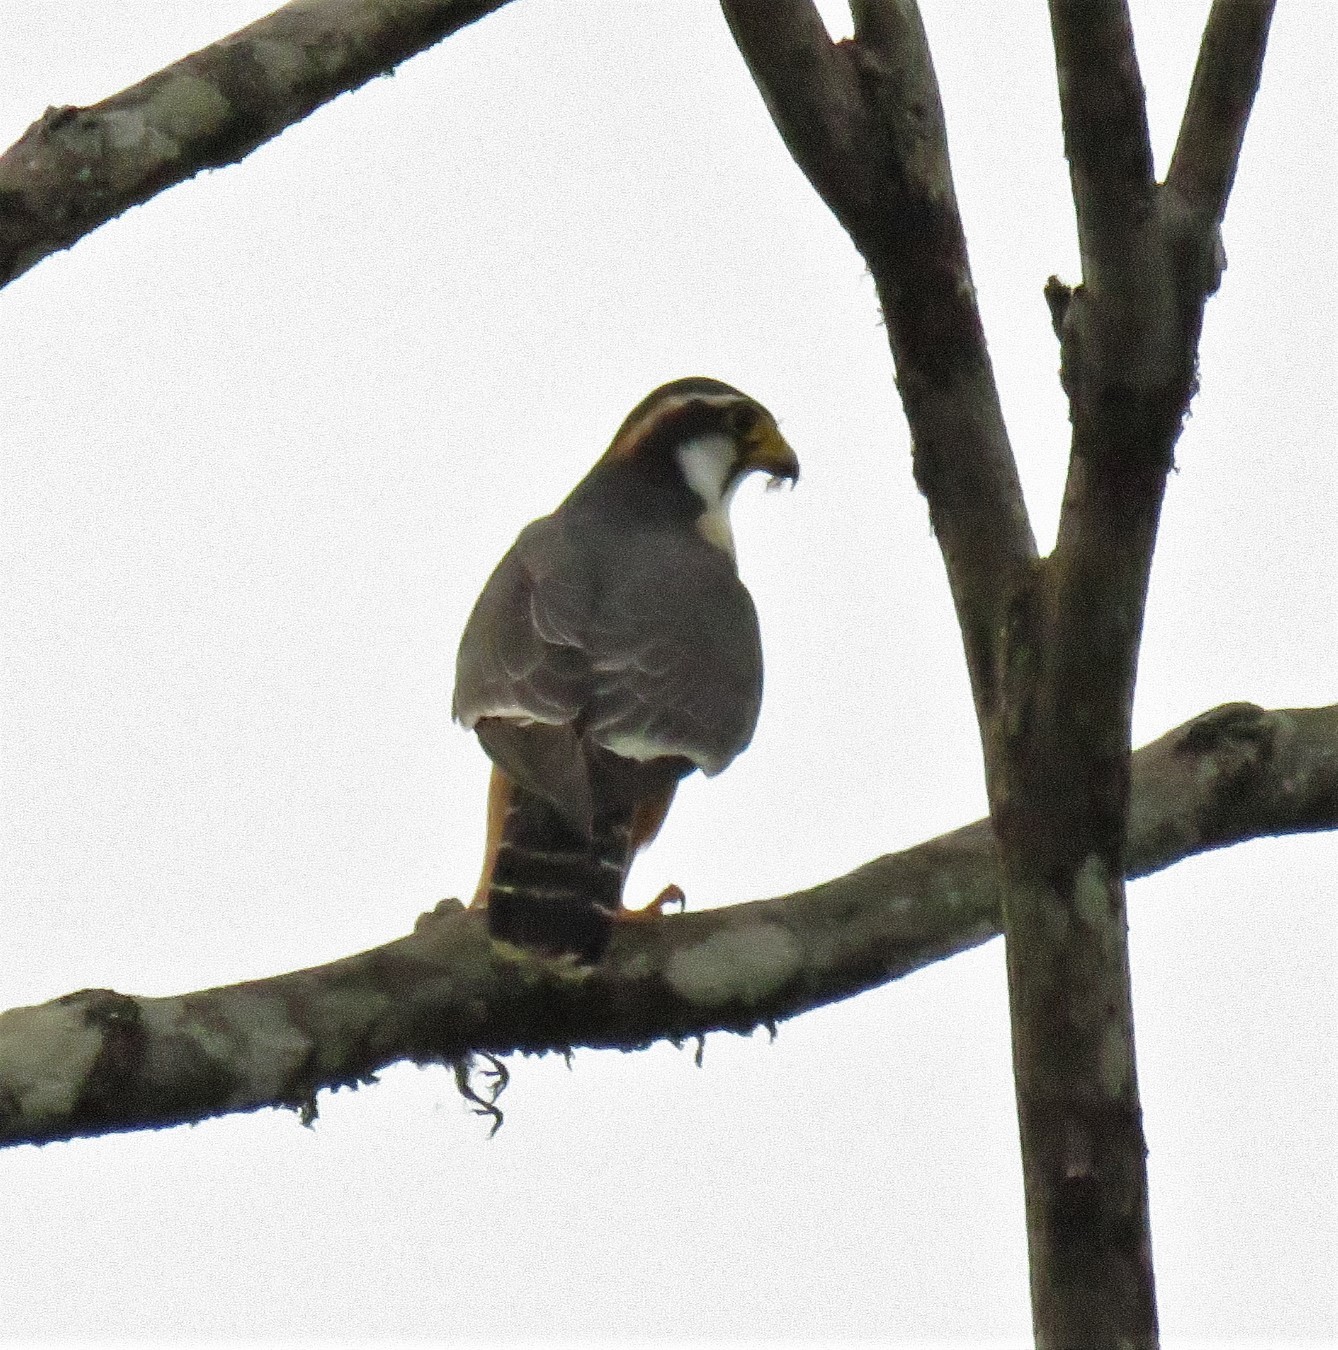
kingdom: Animalia
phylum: Chordata
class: Aves
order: Falconiformes
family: Falconidae
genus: Falco
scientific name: Falco femoralis
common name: Aplomado falcon
